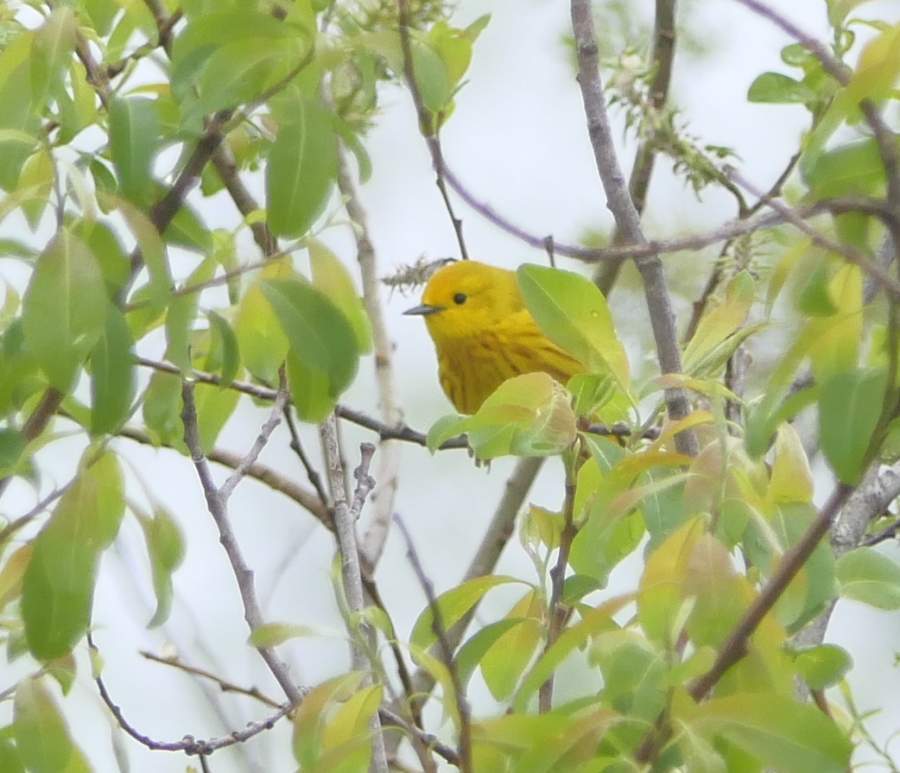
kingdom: Animalia
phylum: Chordata
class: Aves
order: Passeriformes
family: Parulidae
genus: Setophaga
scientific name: Setophaga petechia
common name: Yellow warbler
